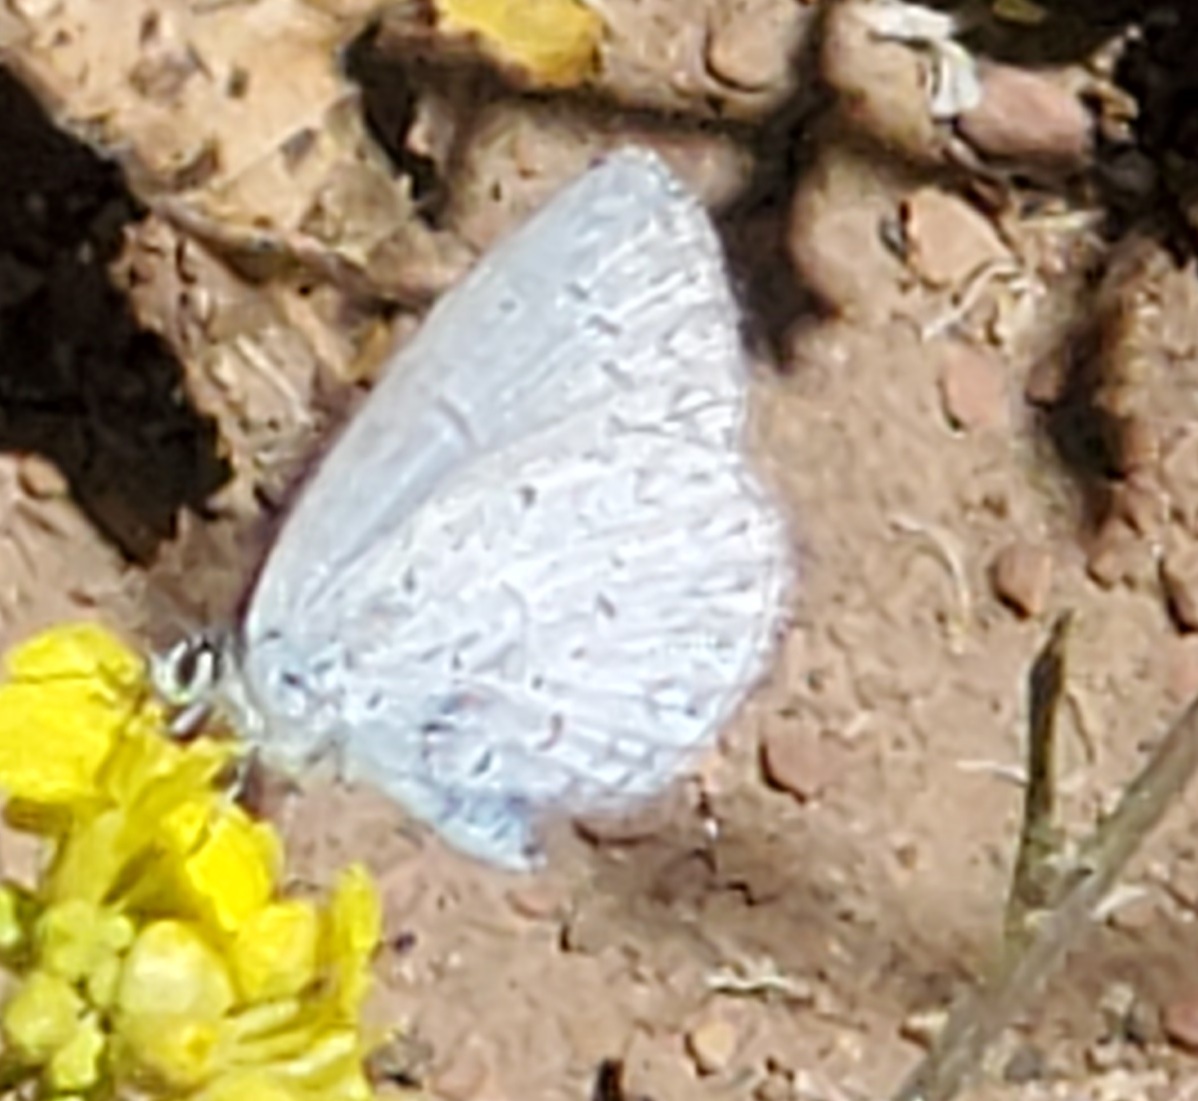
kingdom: Animalia
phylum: Arthropoda
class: Insecta
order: Lepidoptera
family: Lycaenidae
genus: Celastrina
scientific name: Celastrina ladon
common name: Spring azure
